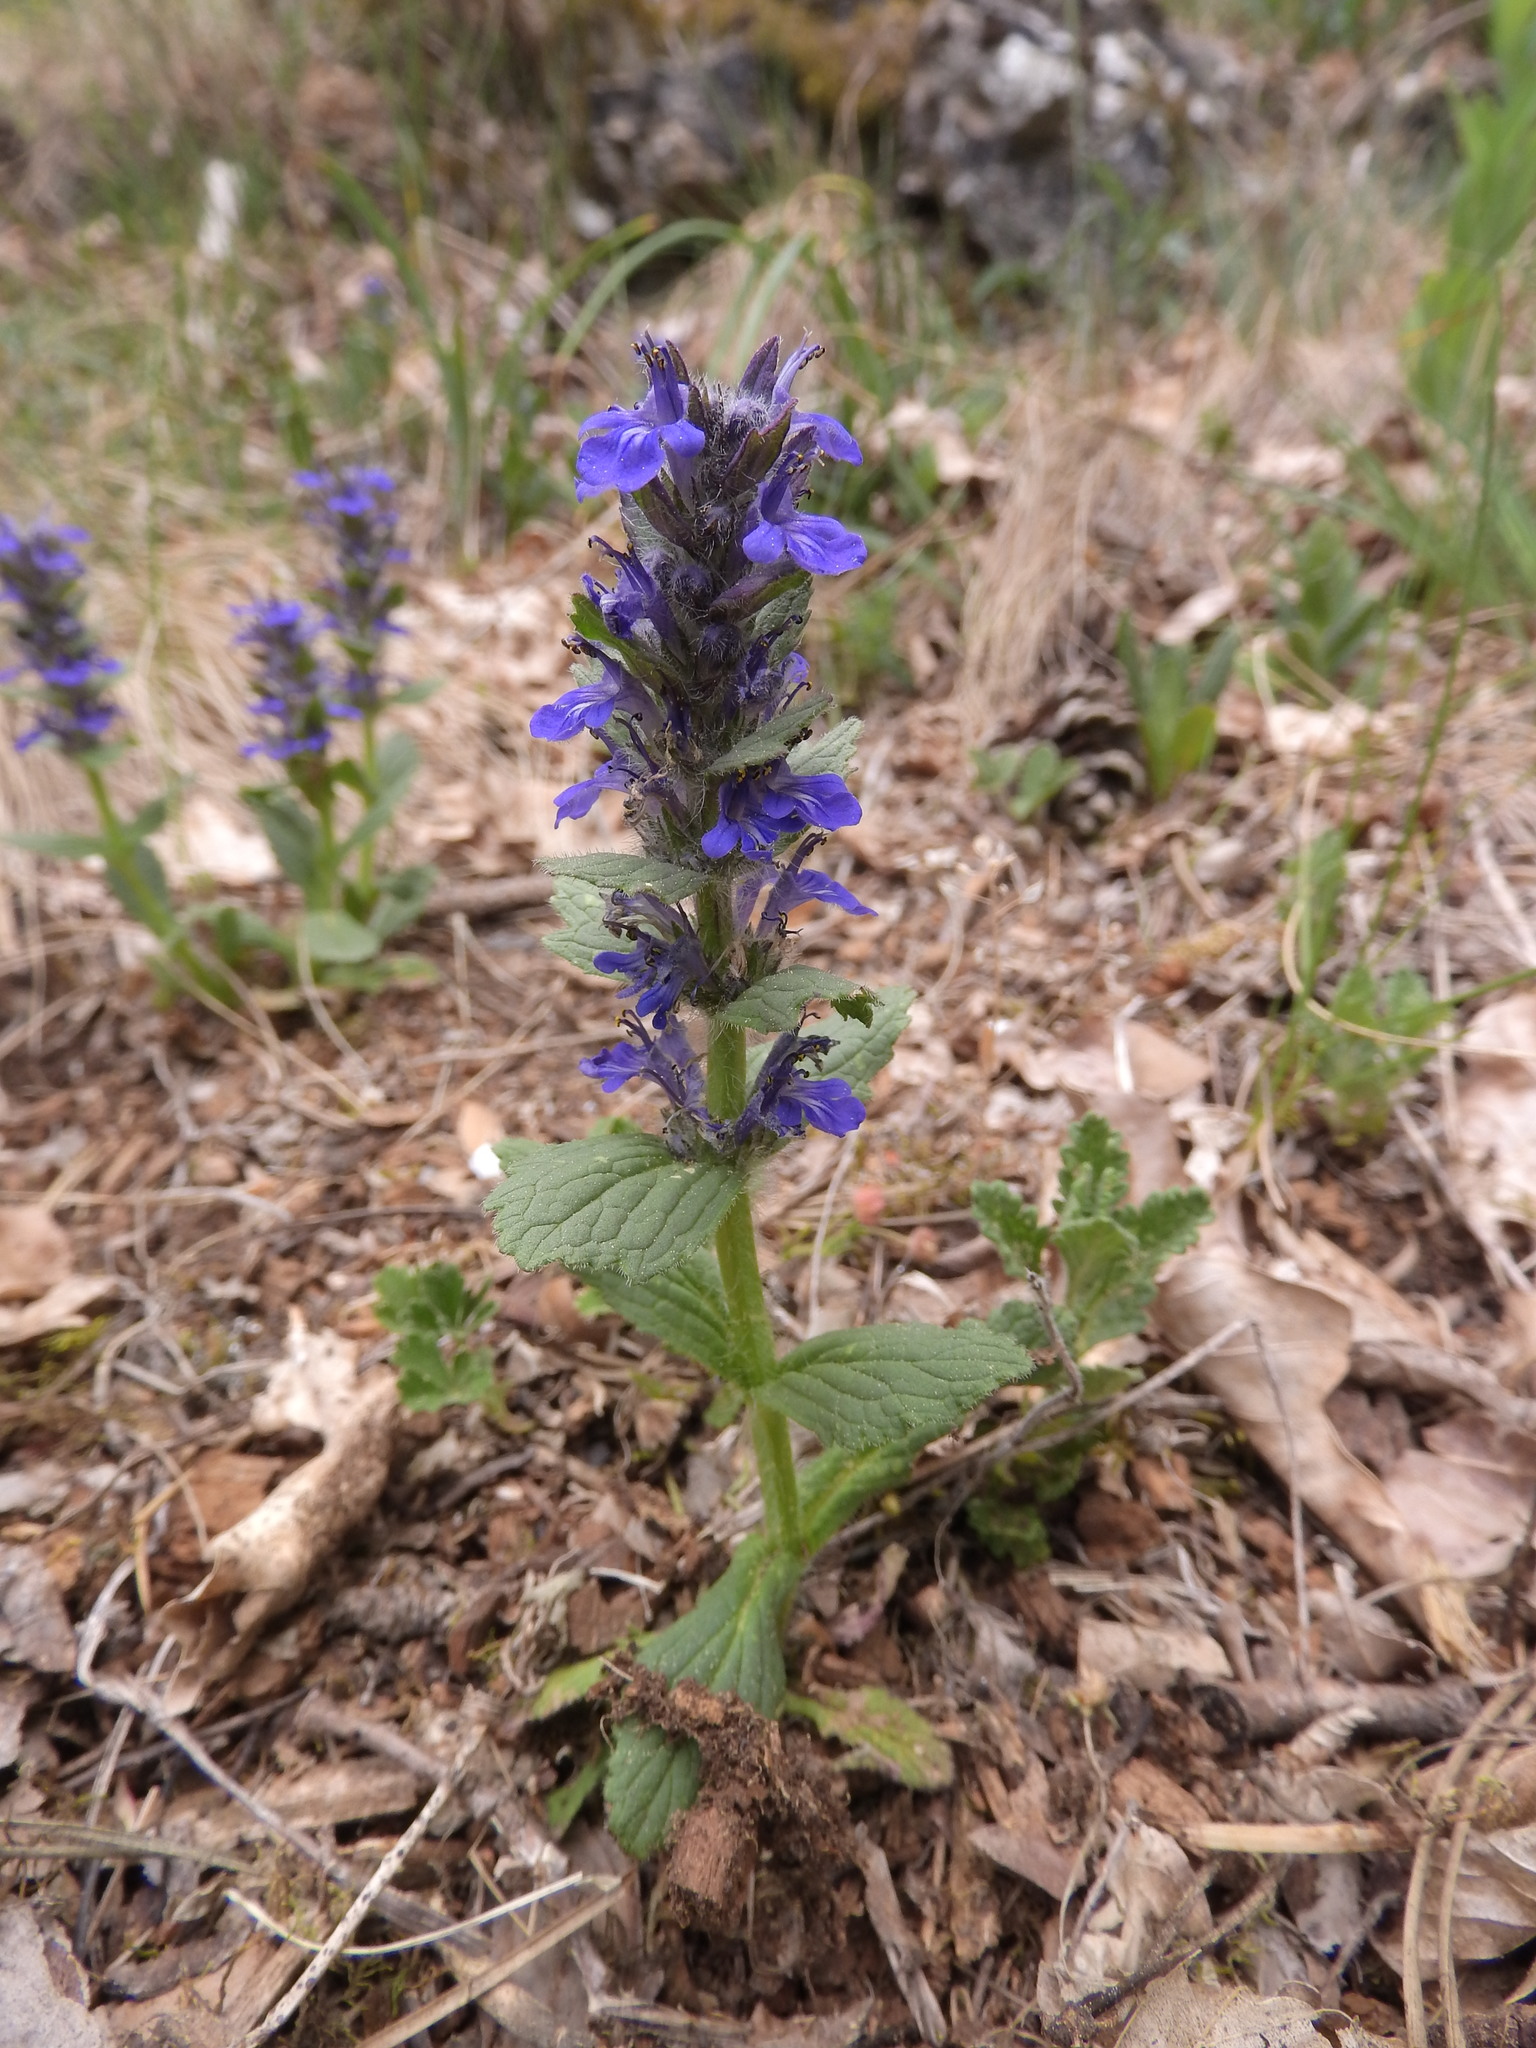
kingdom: Plantae
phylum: Tracheophyta
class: Magnoliopsida
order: Lamiales
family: Lamiaceae
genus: Ajuga
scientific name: Ajuga genevensis
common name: Blue bugle
